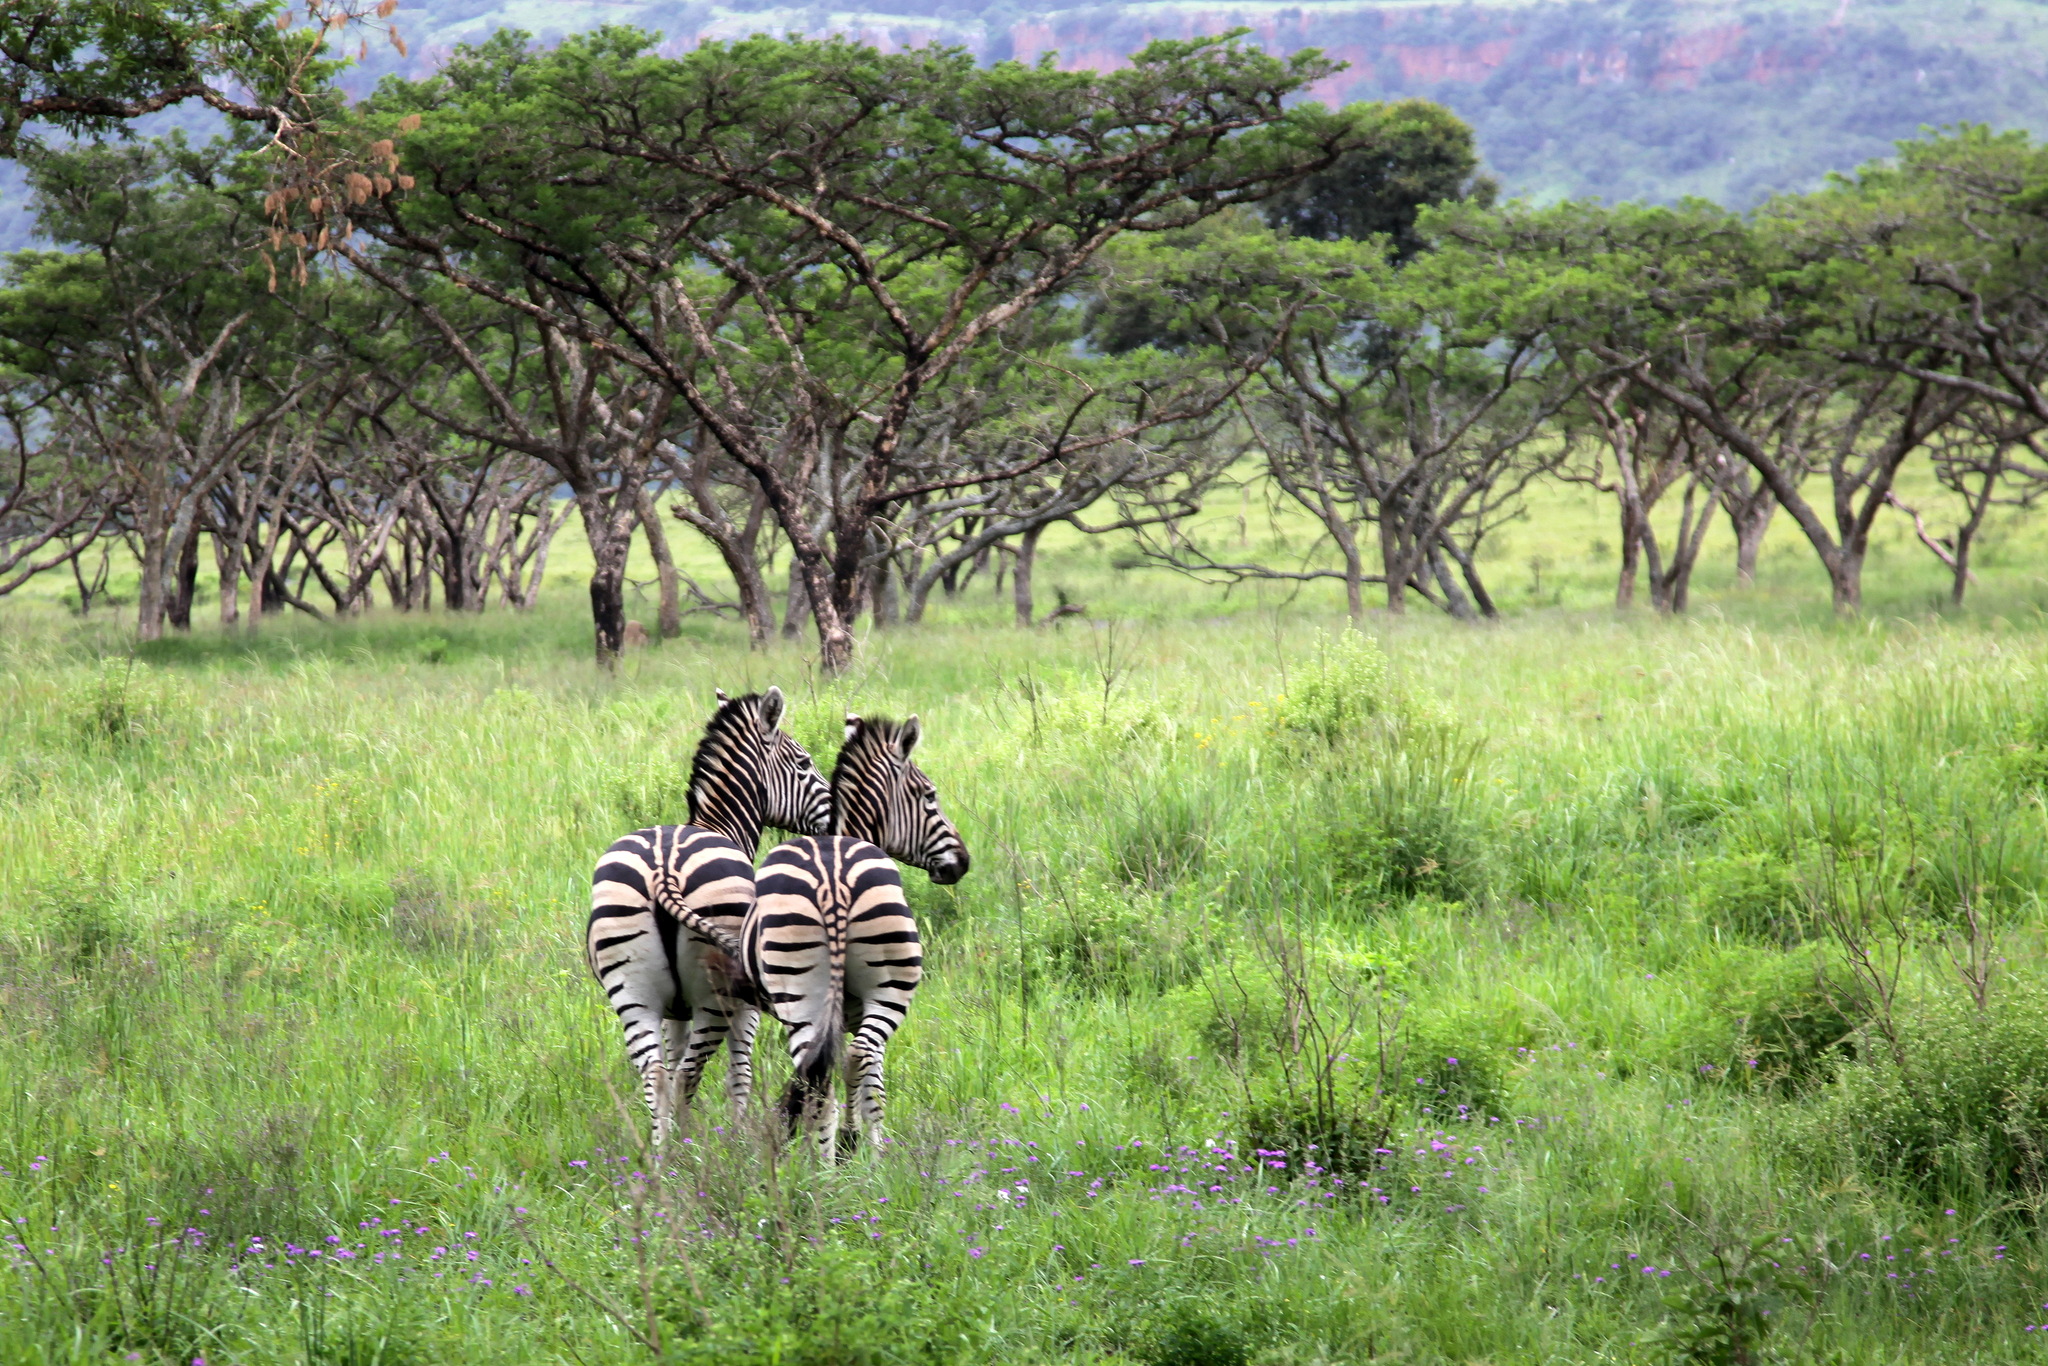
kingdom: Animalia
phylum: Chordata
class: Mammalia
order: Perissodactyla
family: Equidae
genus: Equus
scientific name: Equus quagga
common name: Plains zebra
